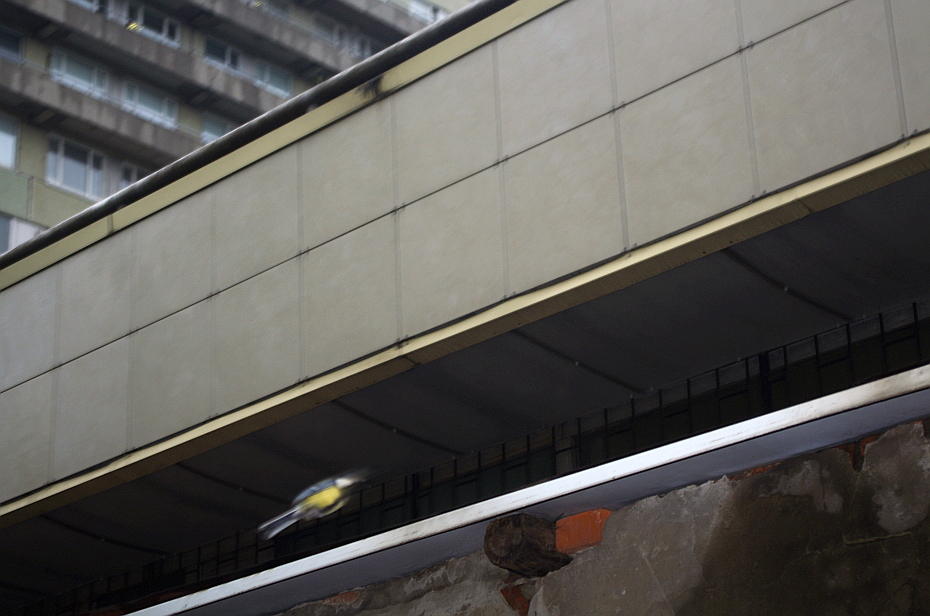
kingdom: Animalia
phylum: Chordata
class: Aves
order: Passeriformes
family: Paridae
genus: Parus
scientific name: Parus major
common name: Great tit
